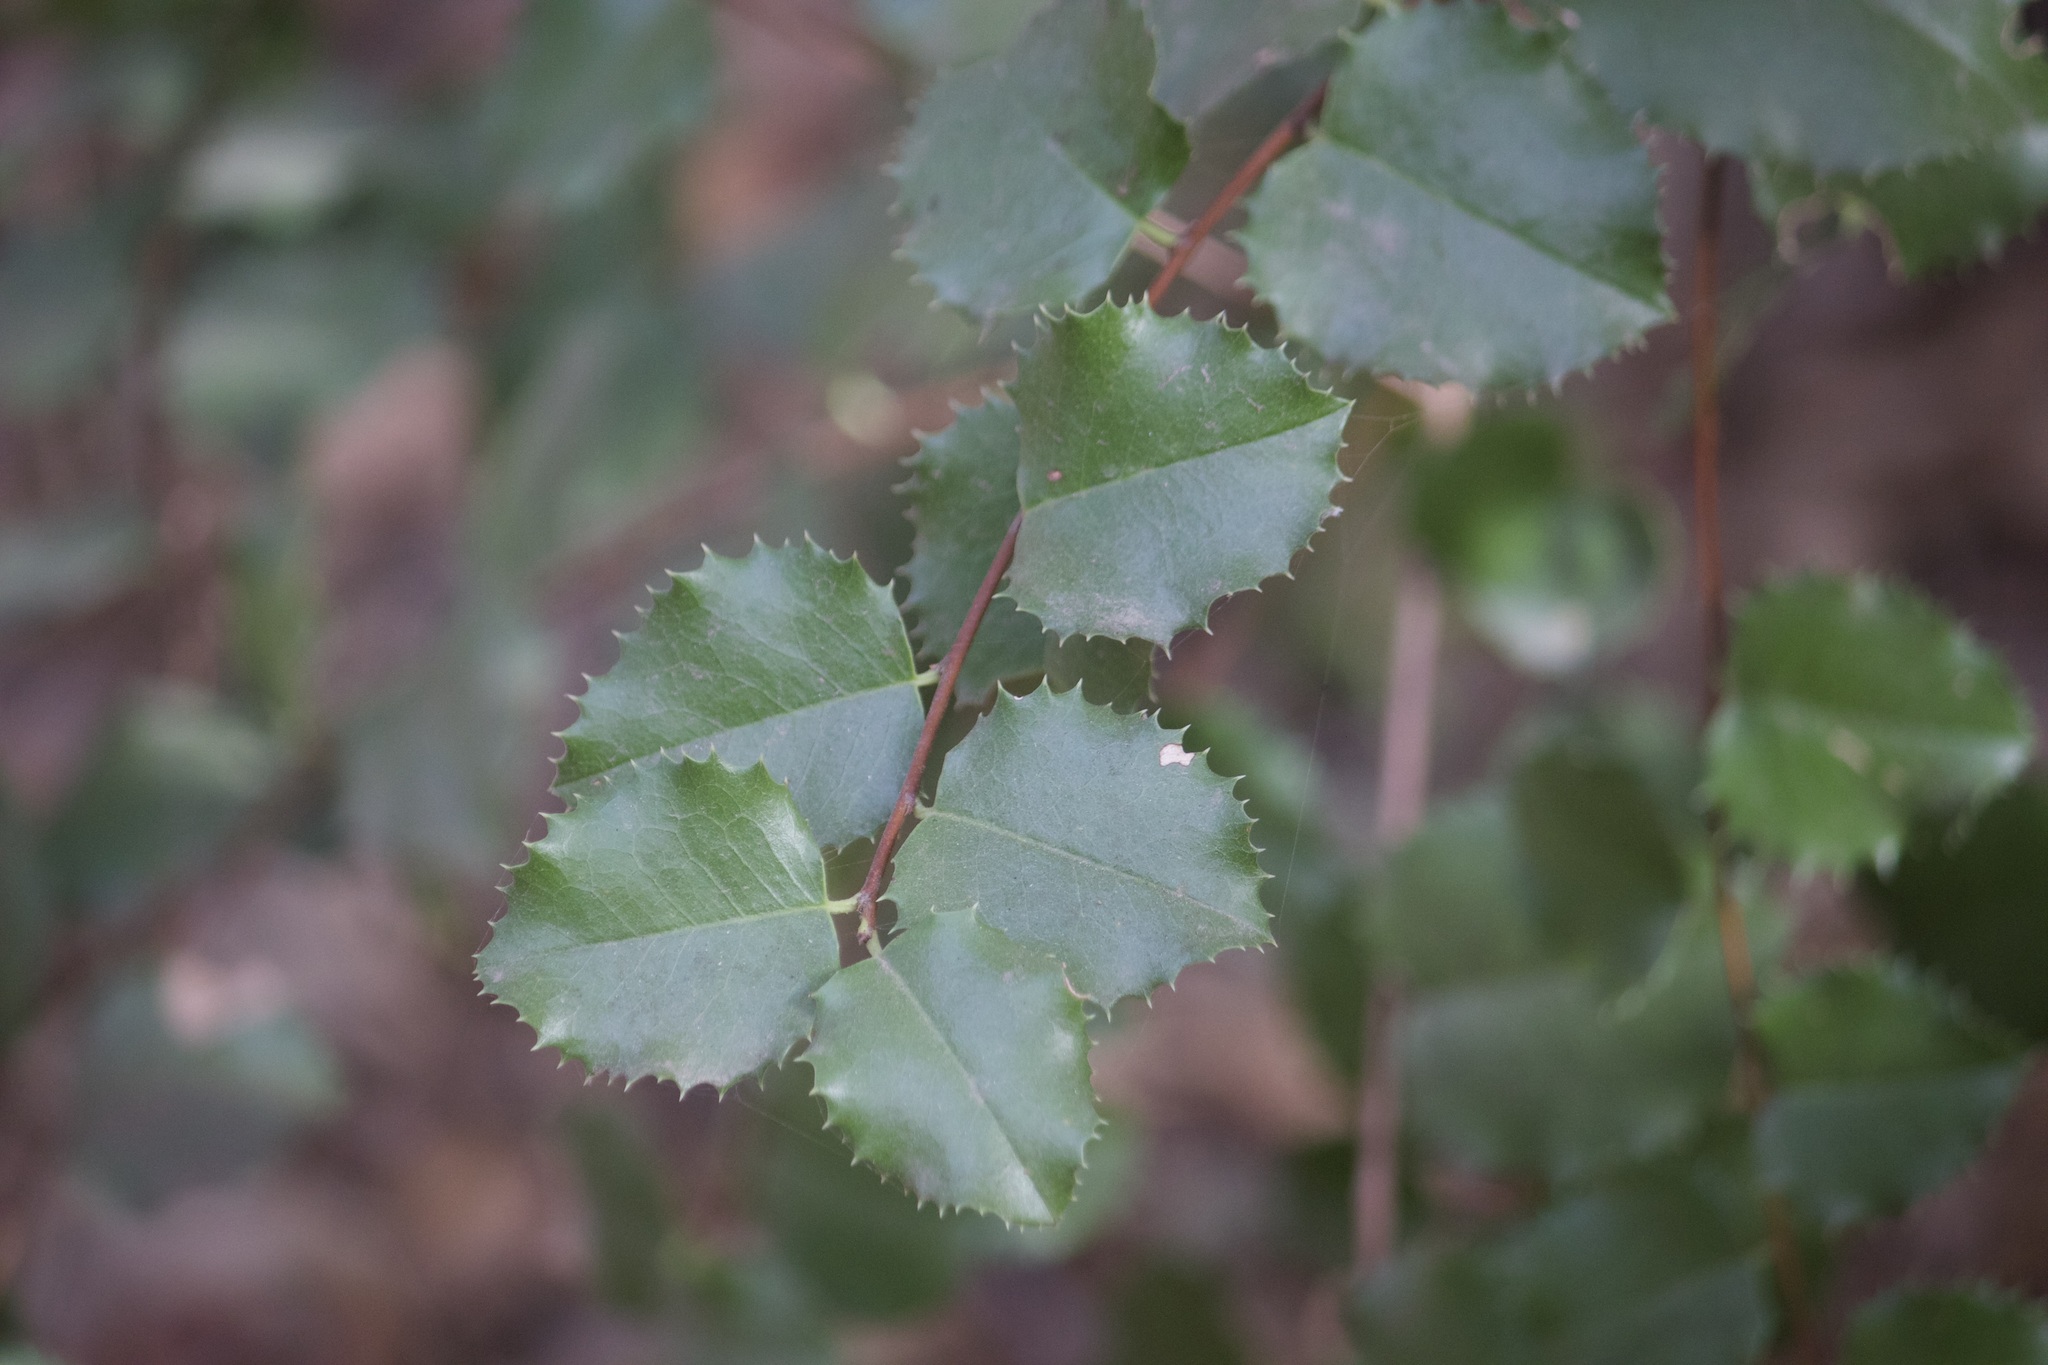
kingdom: Plantae
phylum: Tracheophyta
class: Magnoliopsida
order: Rosales
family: Rosaceae
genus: Prunus
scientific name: Prunus ilicifolia
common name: Hollyleaf cherry
